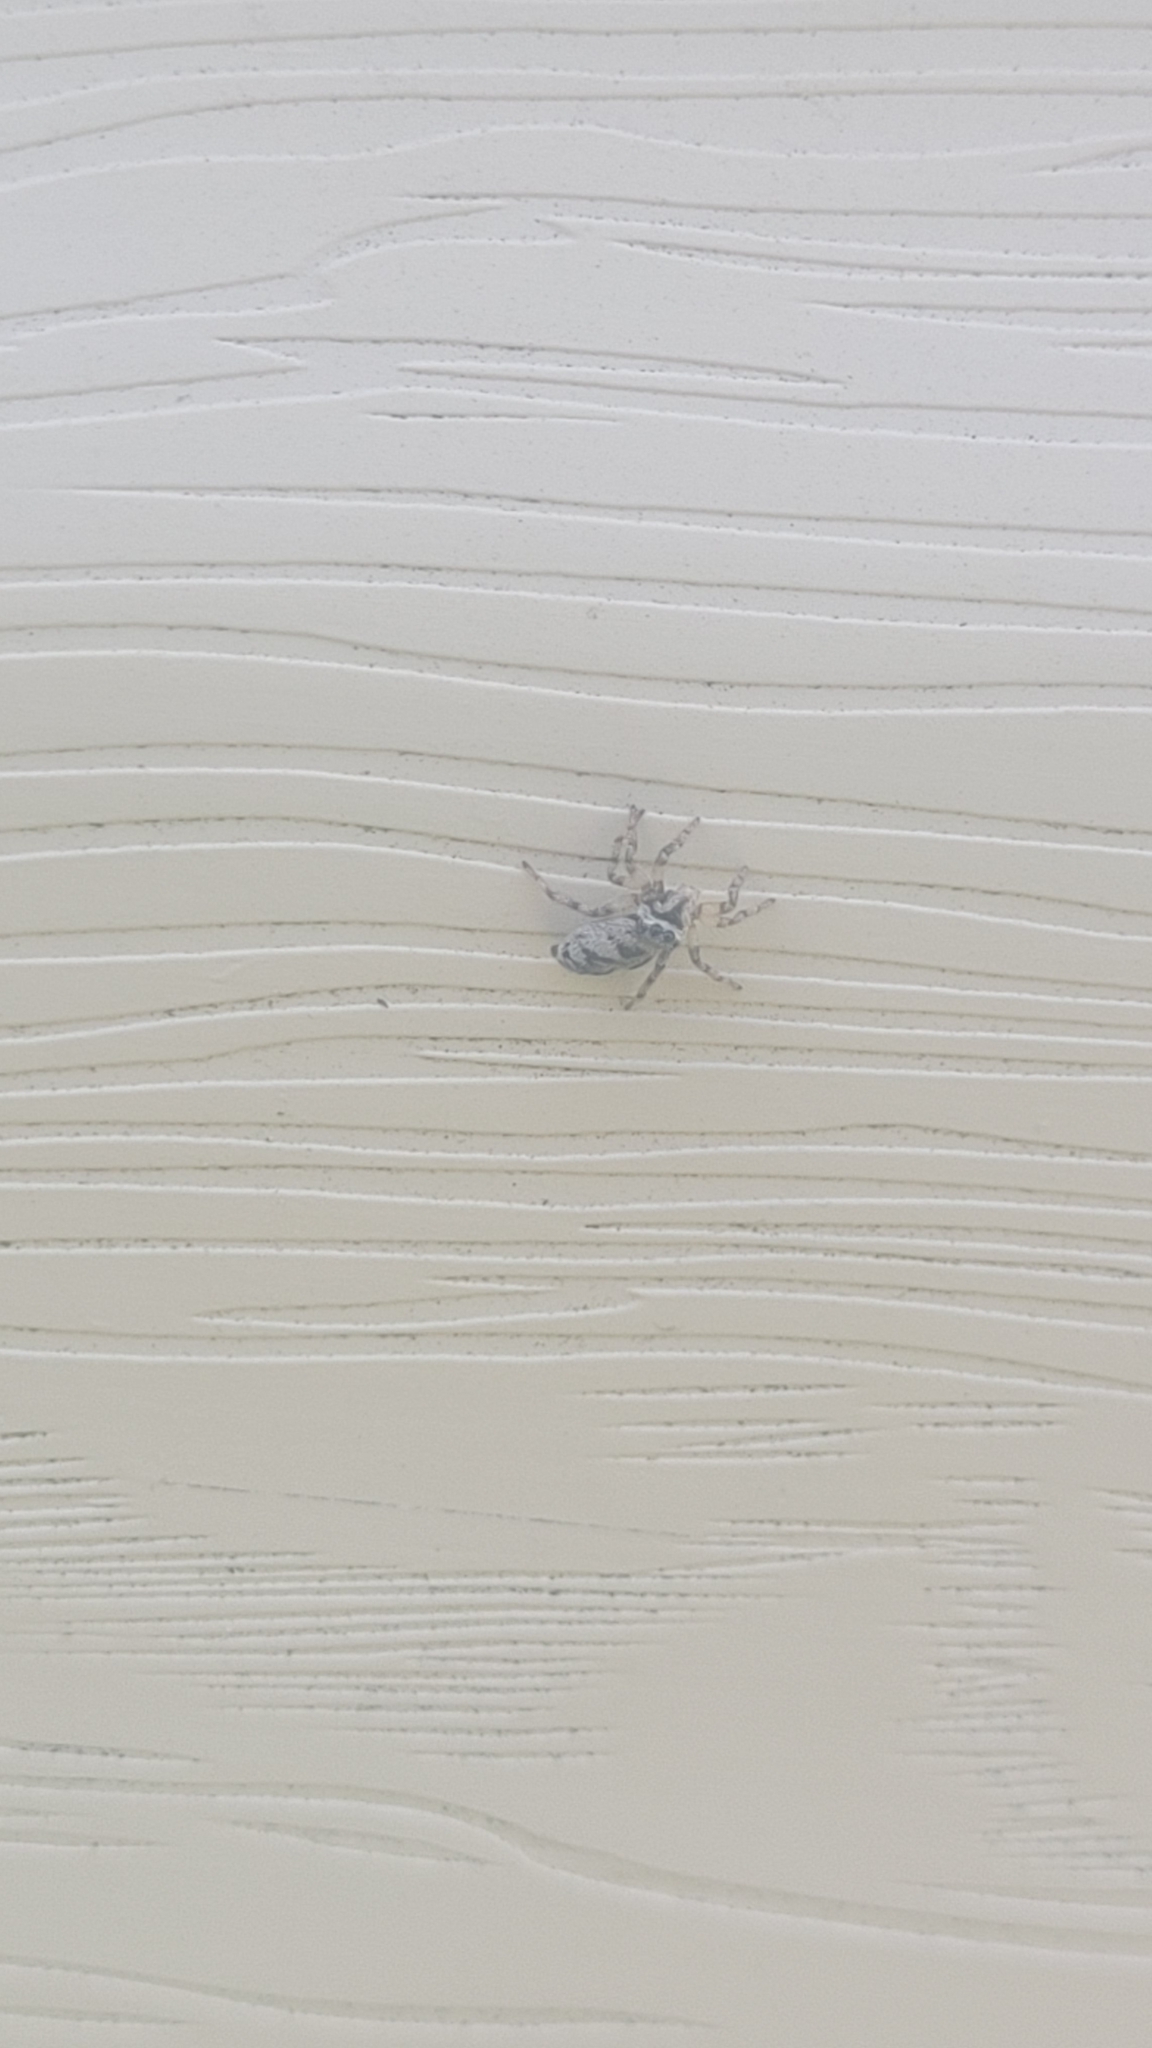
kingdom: Animalia
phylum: Arthropoda
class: Arachnida
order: Araneae
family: Salticidae
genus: Salticus
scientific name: Salticus cingulatus
